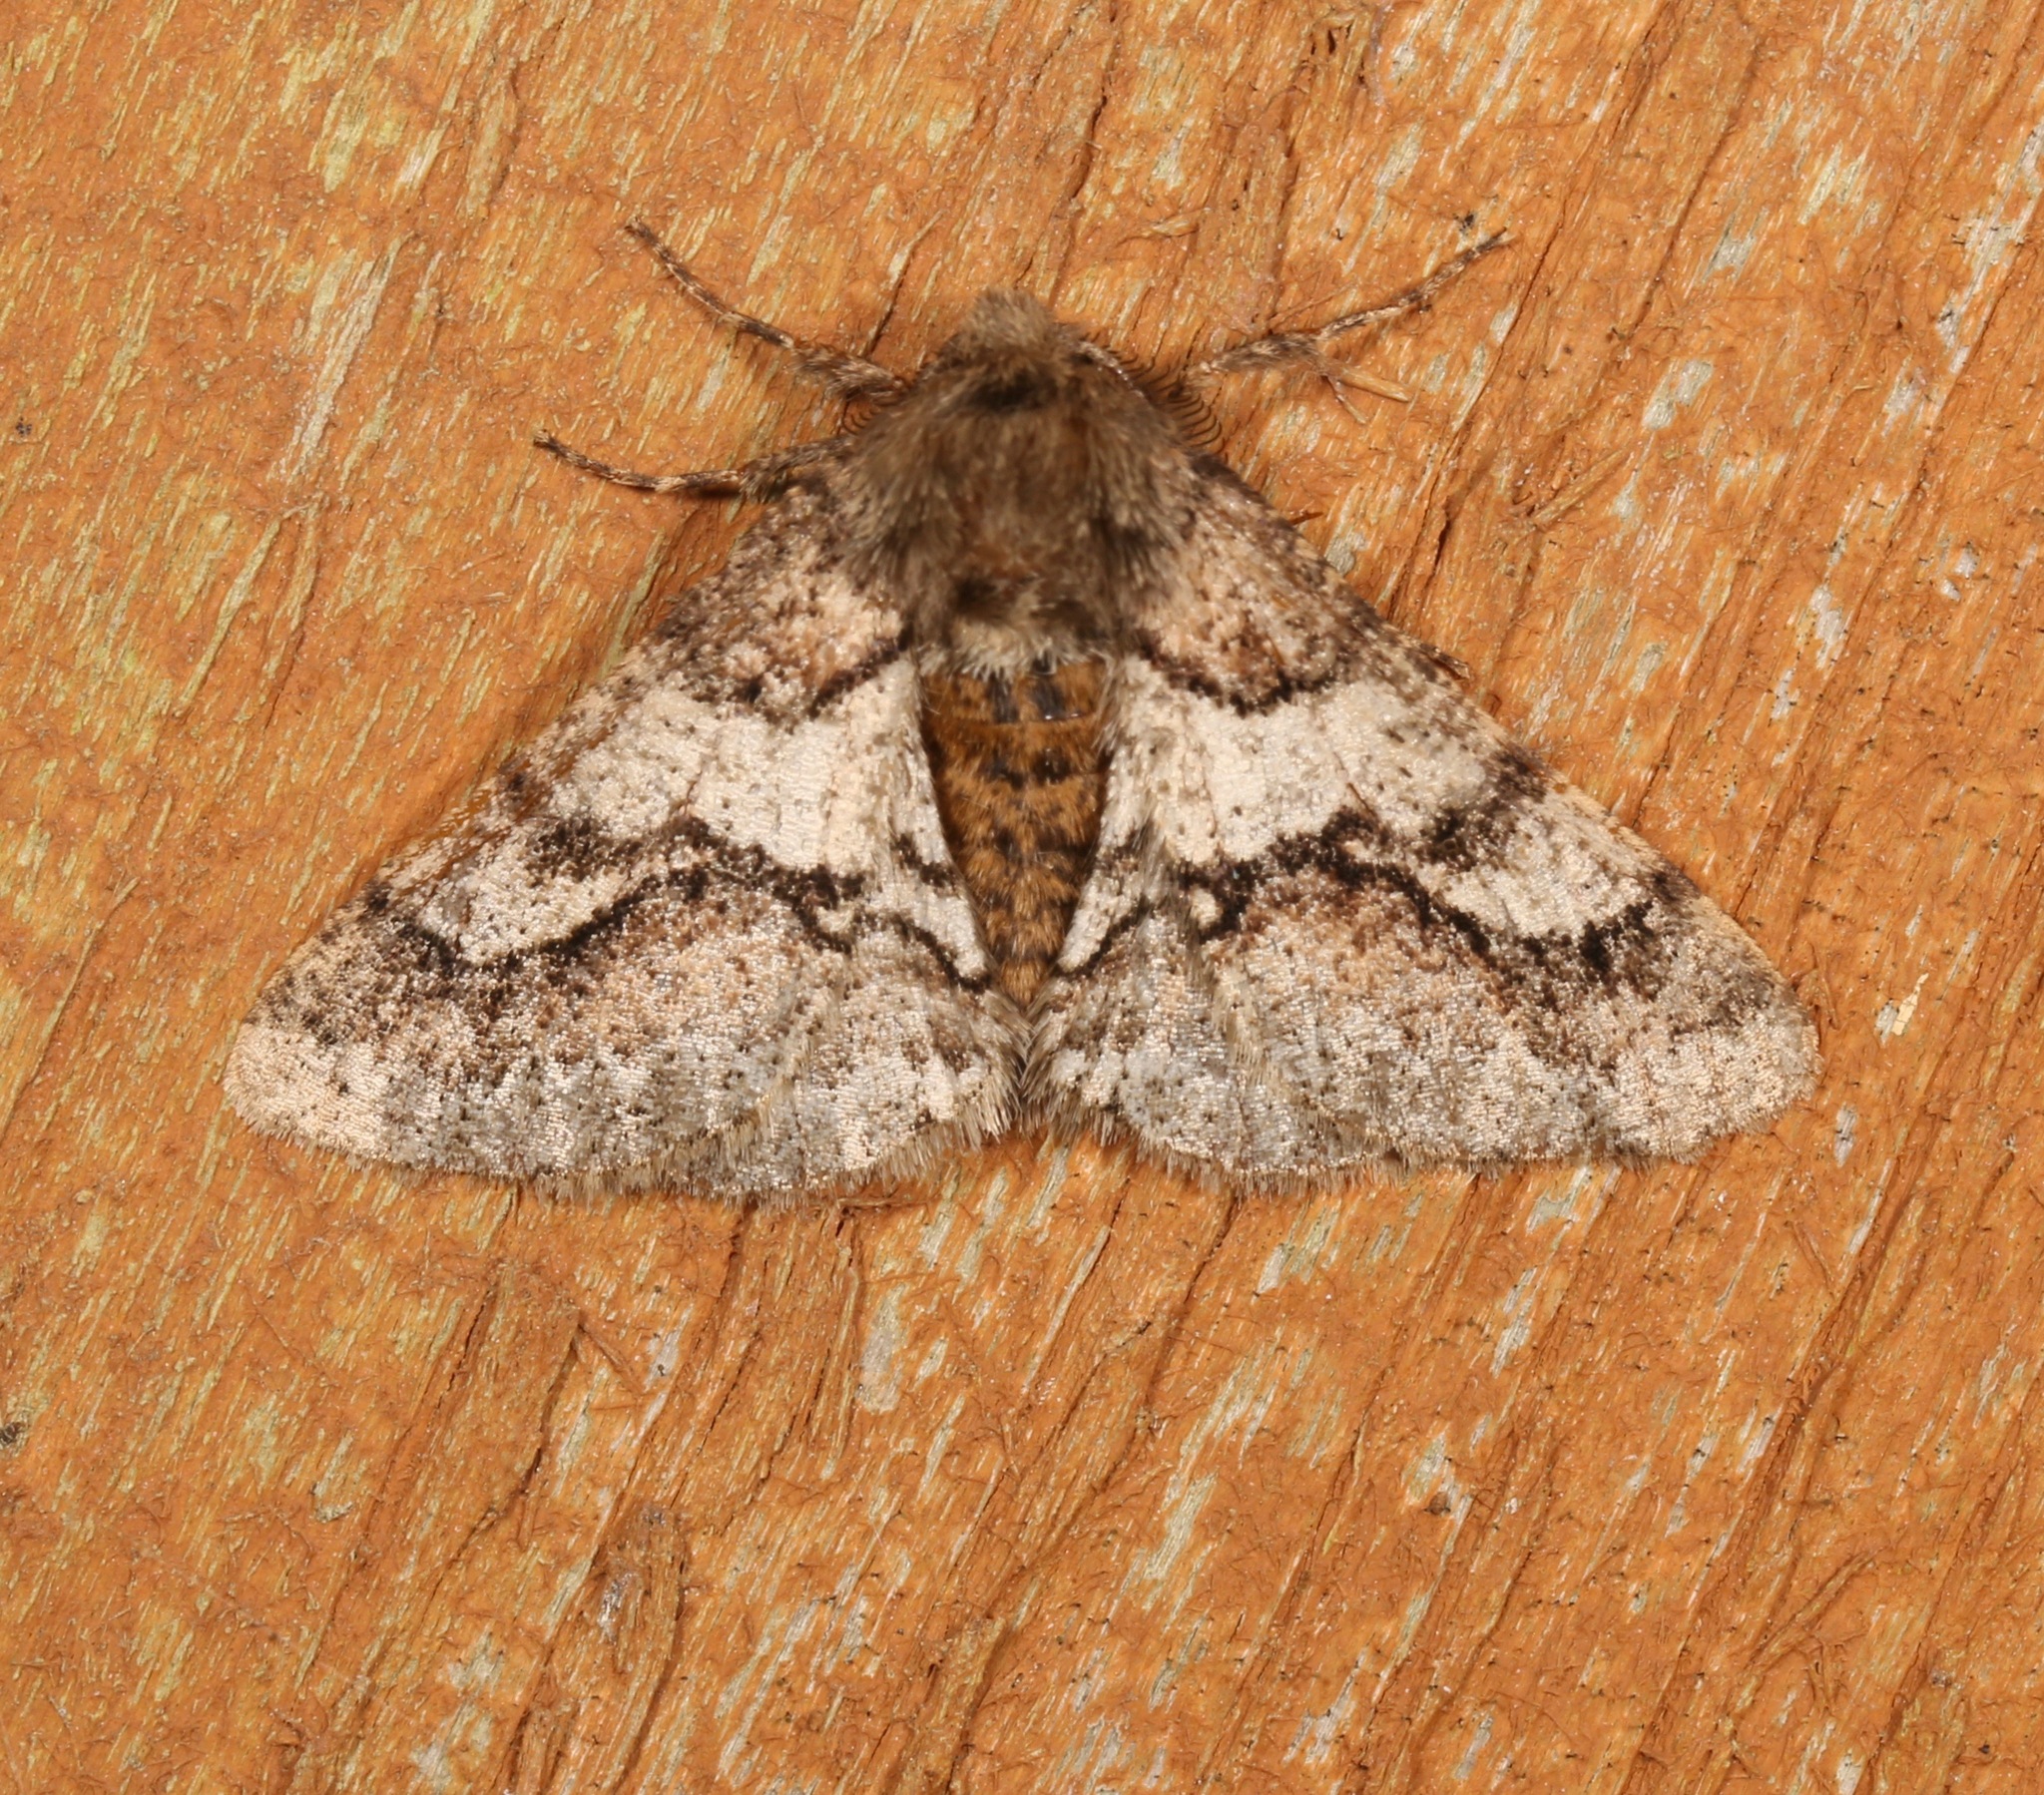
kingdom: Animalia
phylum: Arthropoda
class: Insecta
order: Lepidoptera
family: Geometridae
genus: Lycia
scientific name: Lycia ypsilon
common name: Wooly gray
